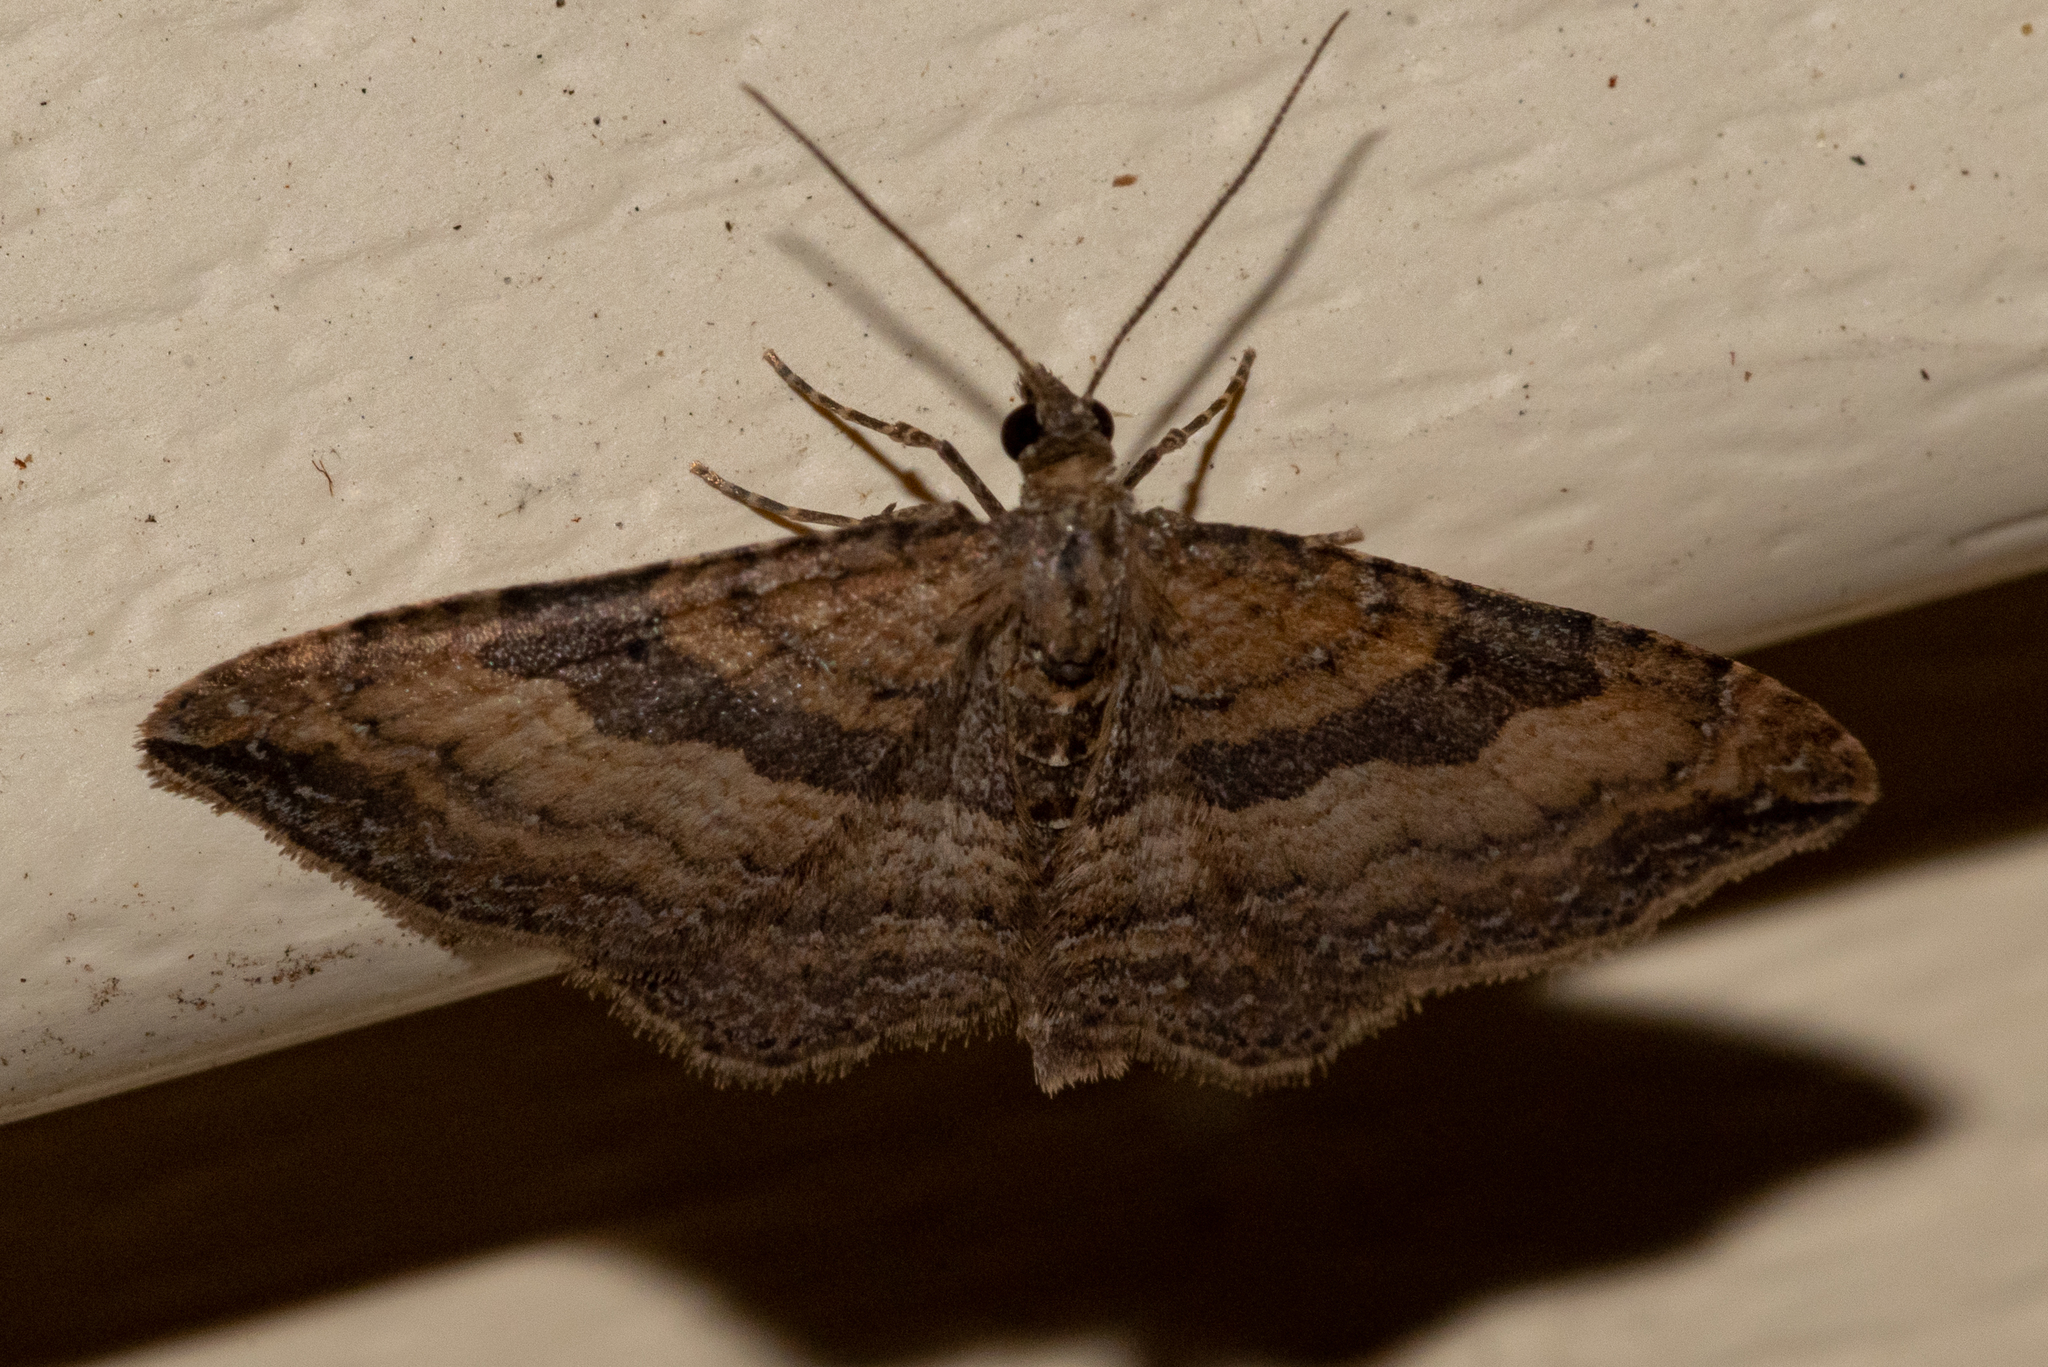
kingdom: Animalia
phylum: Arthropoda
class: Insecta
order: Lepidoptera
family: Geometridae
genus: Orthonama
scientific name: Orthonama obstipata
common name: The gem
